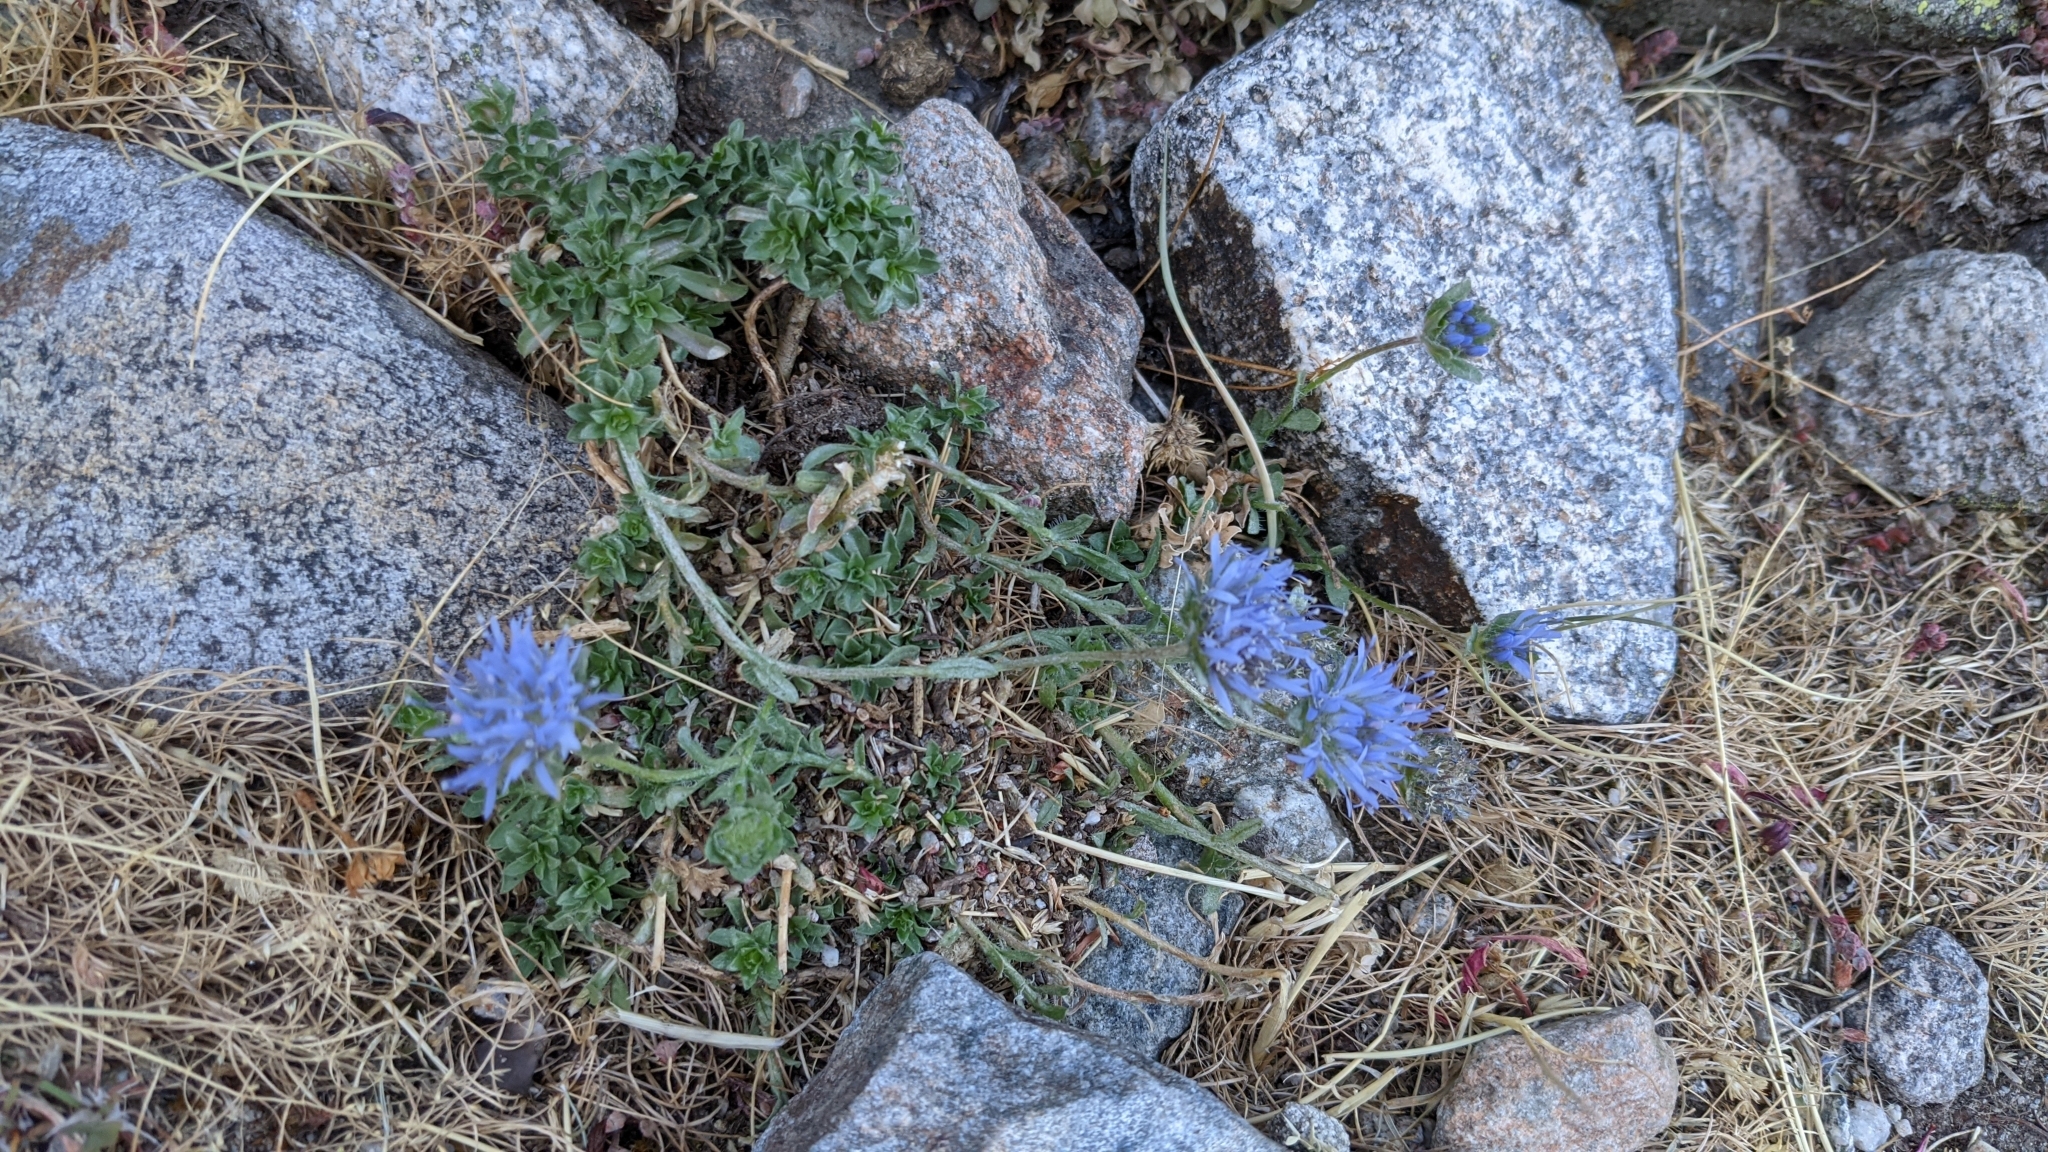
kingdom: Plantae
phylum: Tracheophyta
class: Magnoliopsida
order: Asterales
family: Campanulaceae
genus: Jasione
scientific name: Jasione crispa
